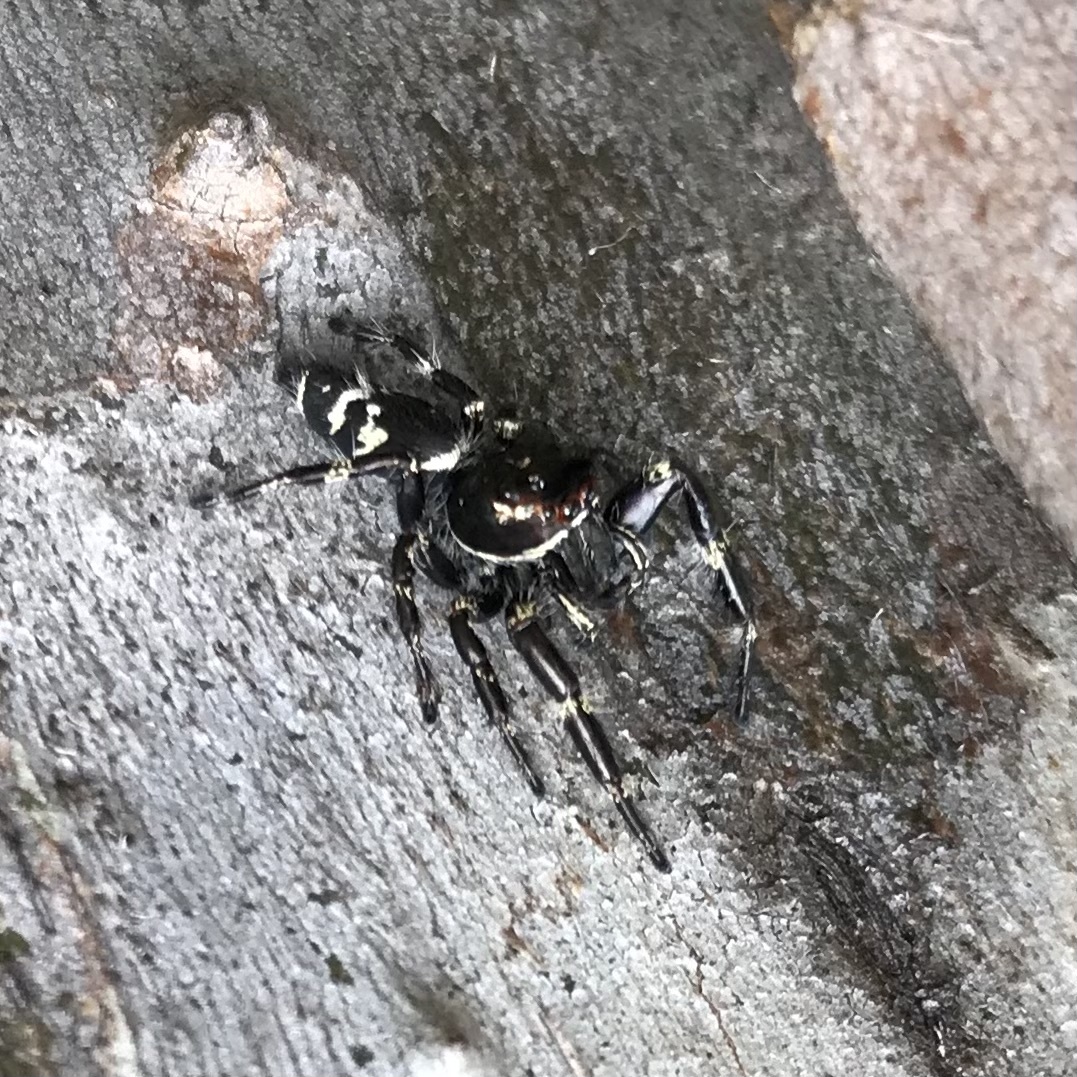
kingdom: Animalia
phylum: Arthropoda
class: Arachnida
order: Araneae
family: Salticidae
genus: Sandalodes
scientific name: Sandalodes superbus
